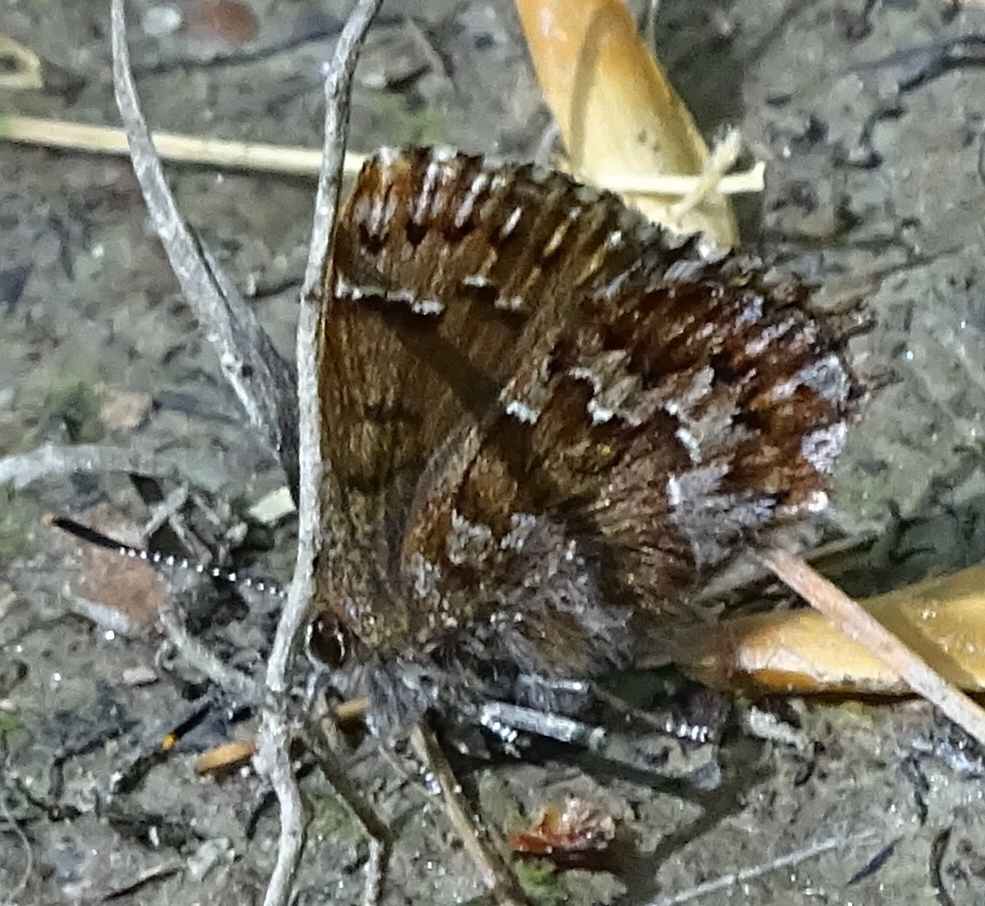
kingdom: Animalia
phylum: Arthropoda
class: Insecta
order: Lepidoptera
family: Lycaenidae
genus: Incisalia
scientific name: Incisalia niphon
